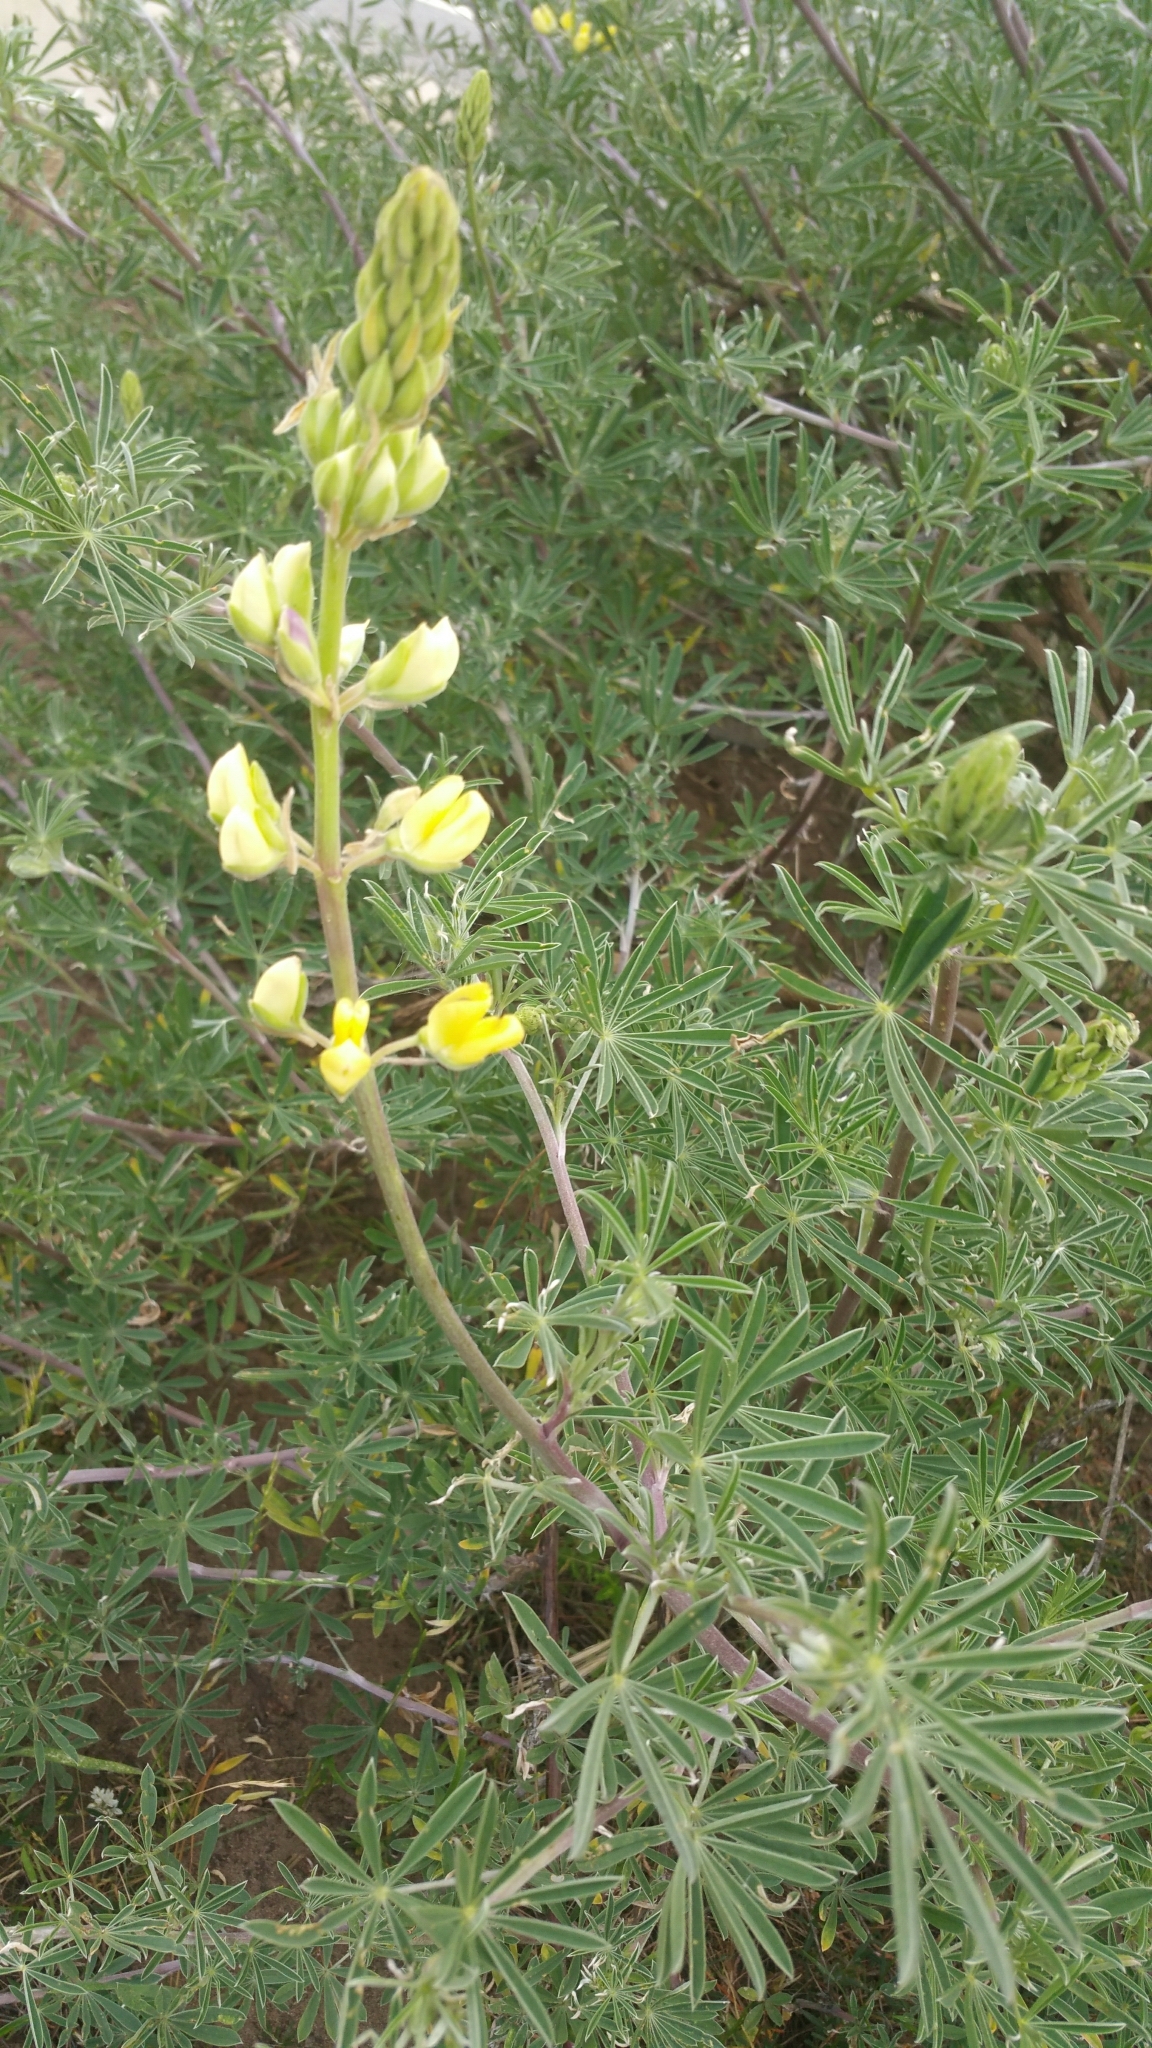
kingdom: Plantae
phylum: Tracheophyta
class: Magnoliopsida
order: Fabales
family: Fabaceae
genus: Lupinus
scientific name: Lupinus arboreus
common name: Yellow bush lupine
